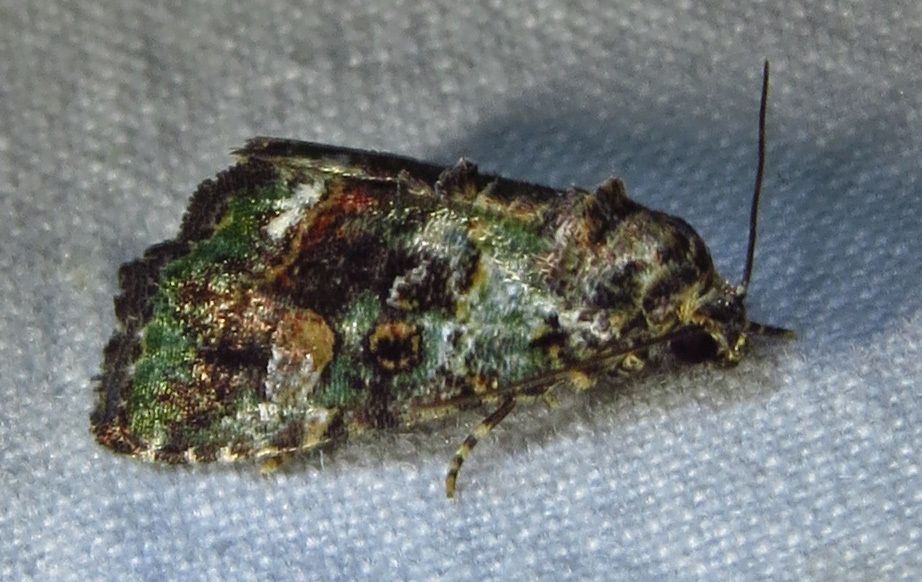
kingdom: Animalia
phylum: Arthropoda
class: Insecta
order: Lepidoptera
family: Noctuidae
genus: Lithacodia
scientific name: Lithacodia musta
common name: Small mossy glyph
